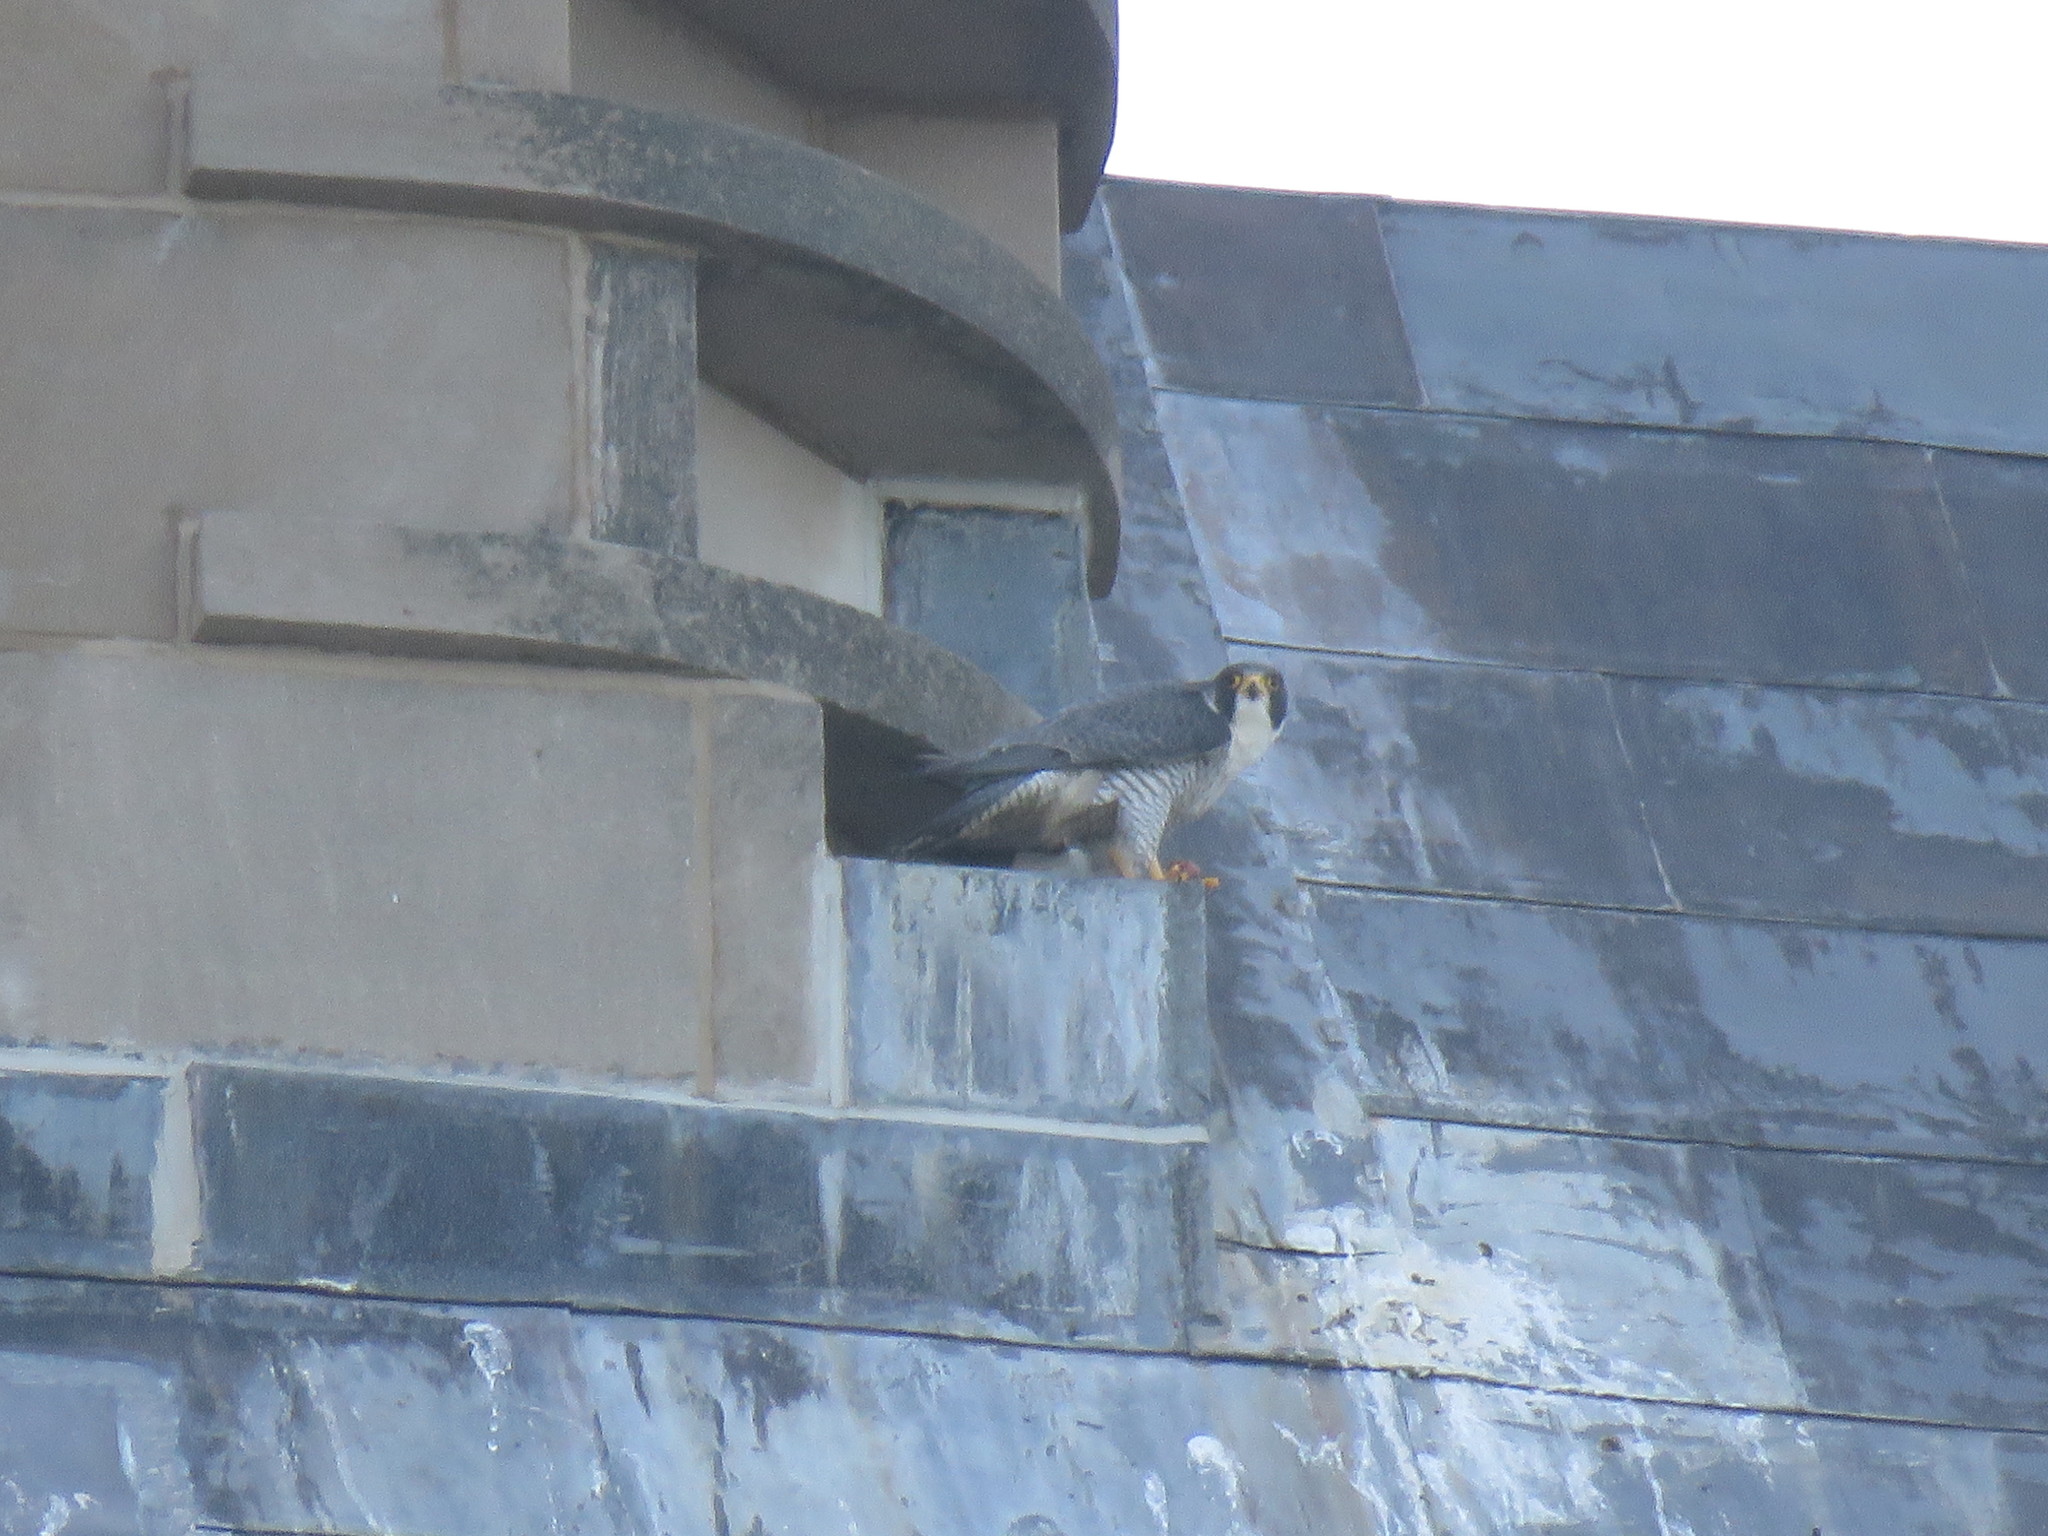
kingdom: Animalia
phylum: Chordata
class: Aves
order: Falconiformes
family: Falconidae
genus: Falco
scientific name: Falco peregrinus
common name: Peregrine falcon
